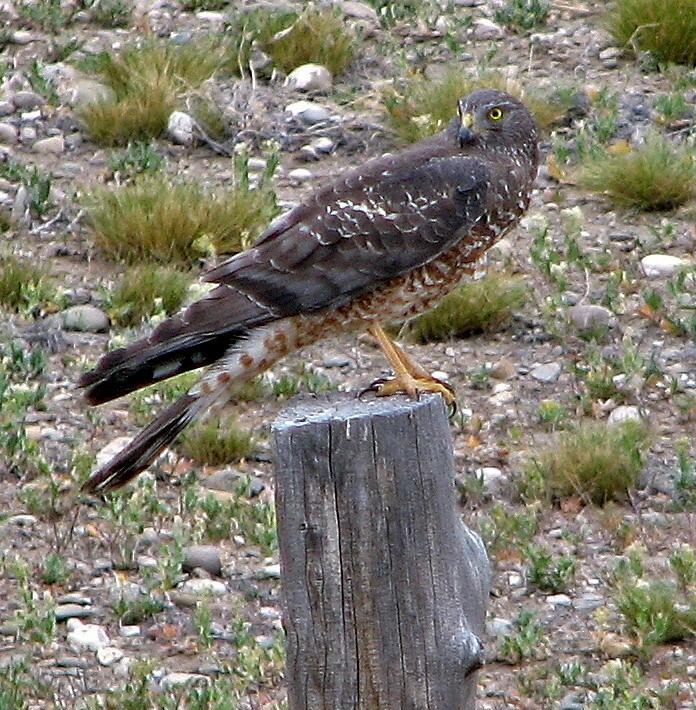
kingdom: Animalia
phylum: Chordata
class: Aves
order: Accipitriformes
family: Accipitridae
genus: Circus
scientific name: Circus cinereus
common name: Cinereous harrier
